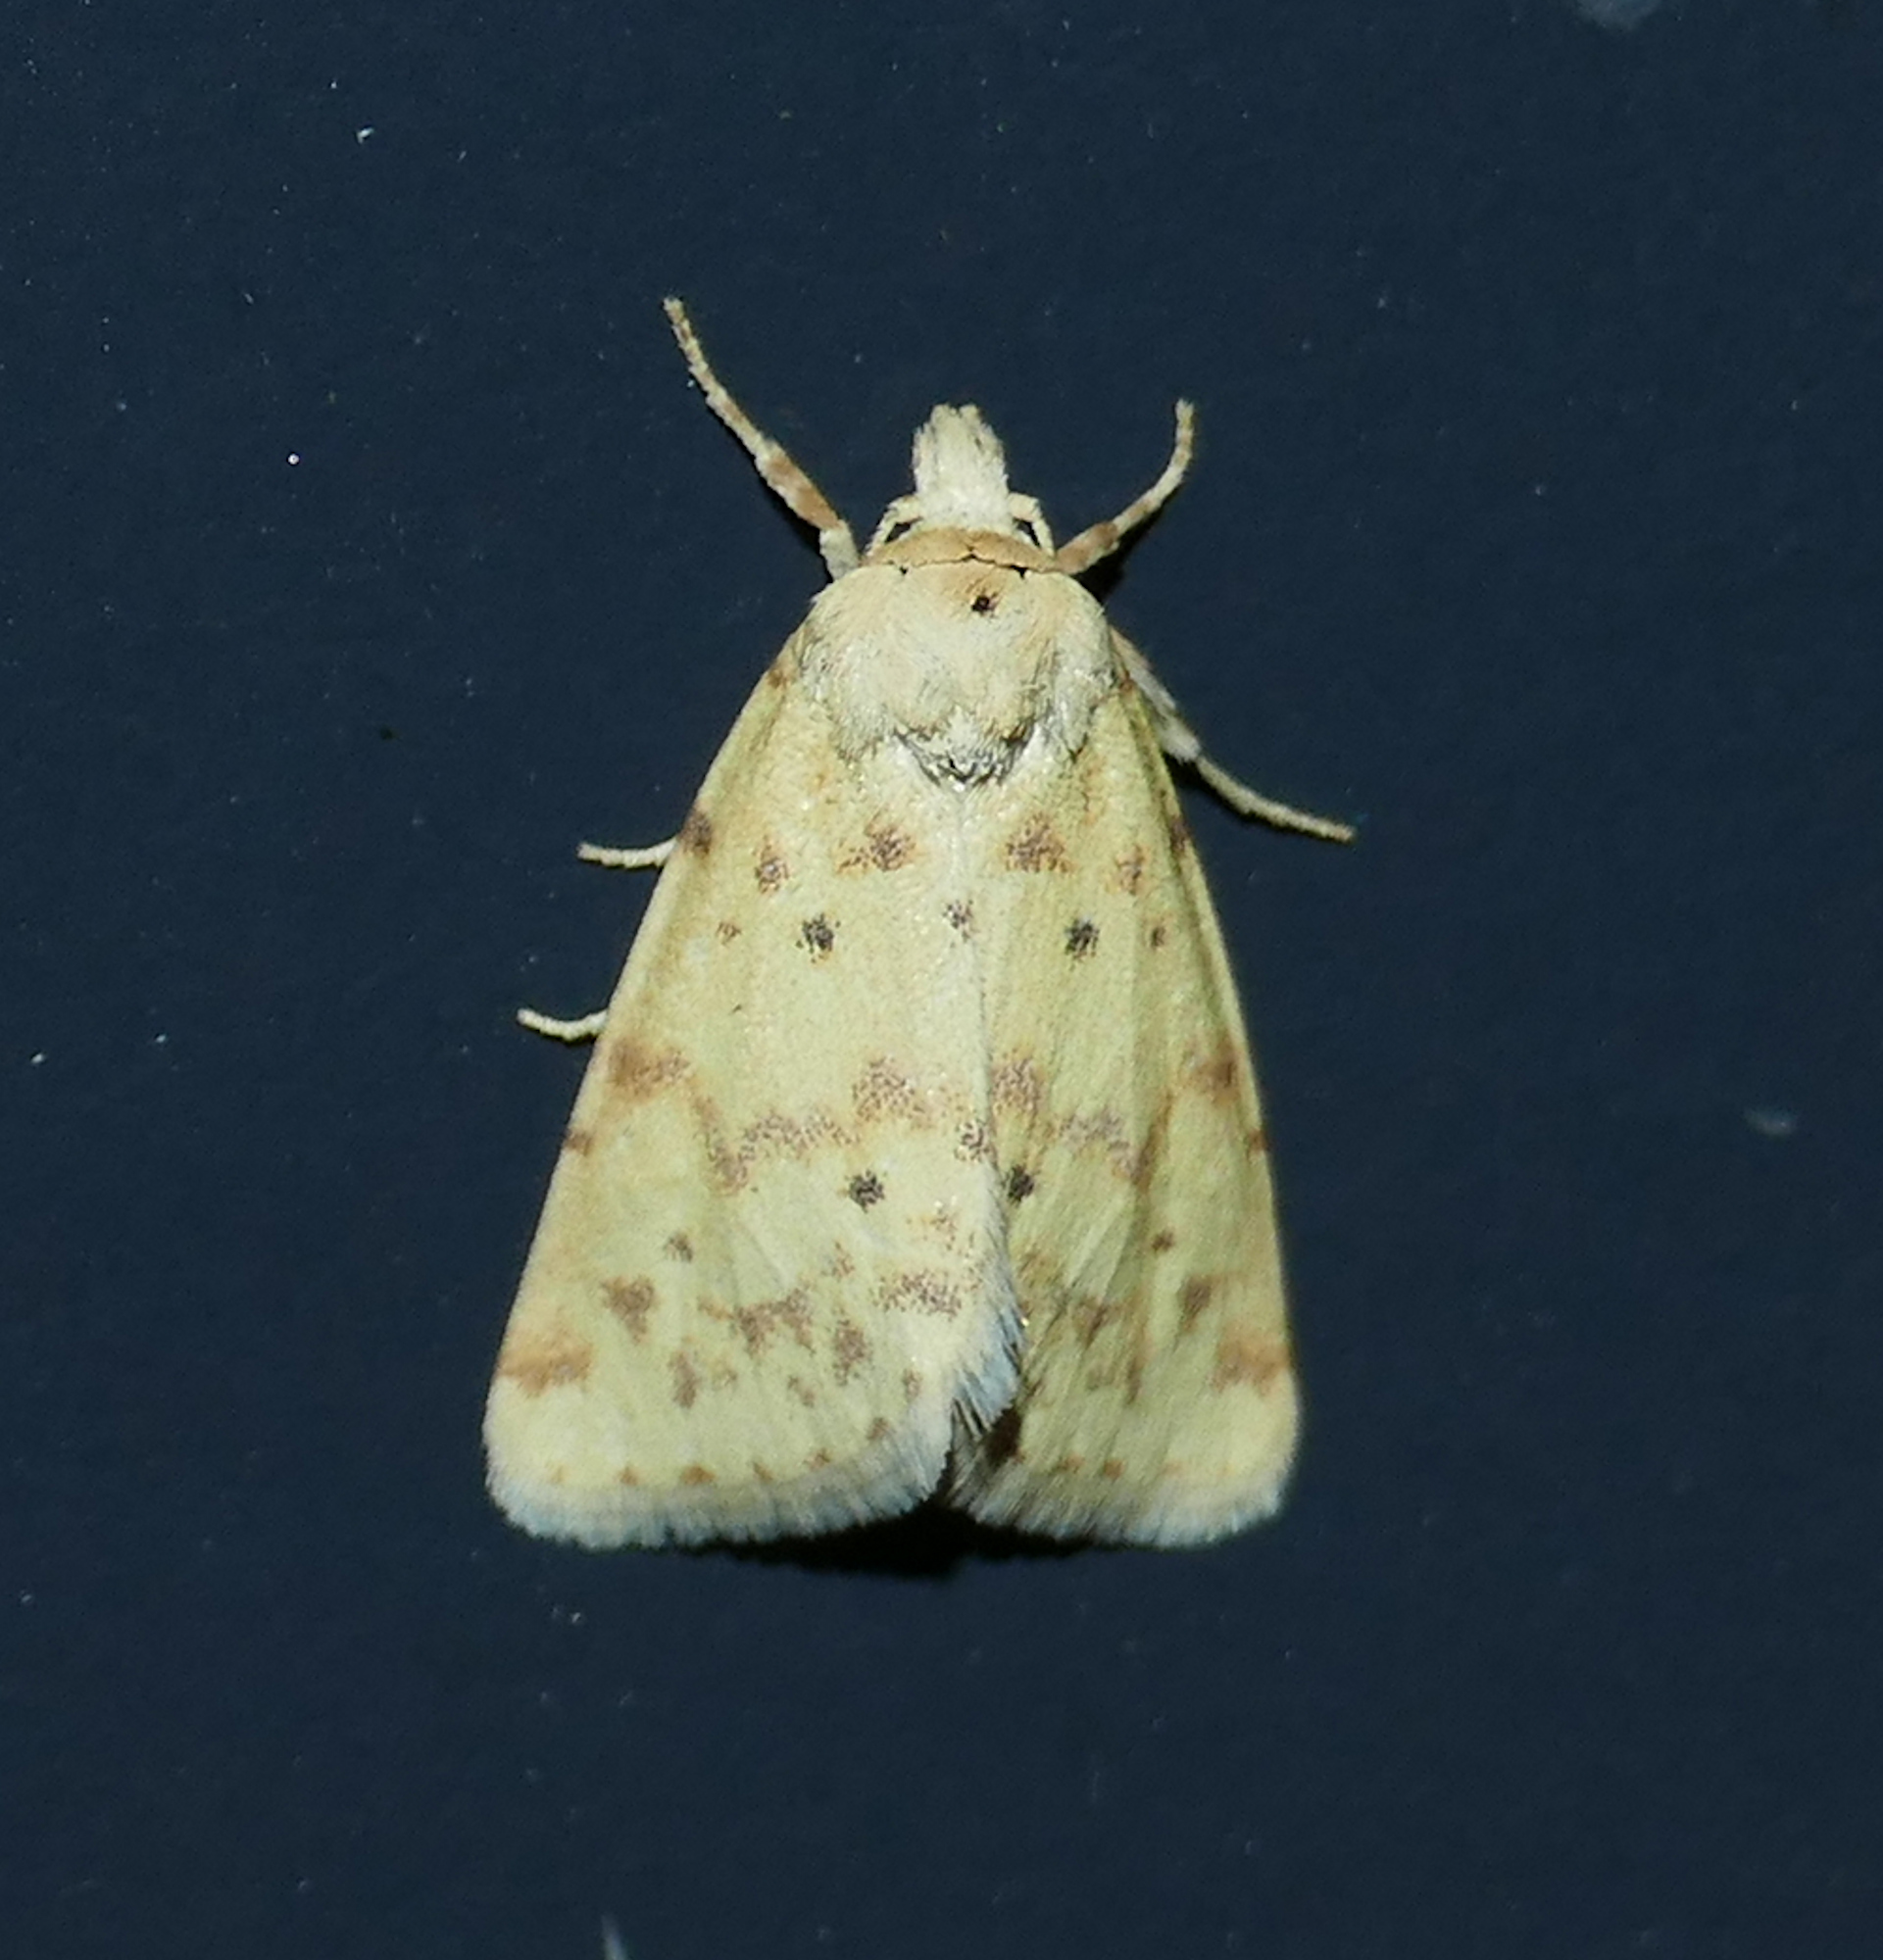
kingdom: Animalia
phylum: Arthropoda
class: Insecta
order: Lepidoptera
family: Noctuidae
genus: Azenia
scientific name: Azenia implora
